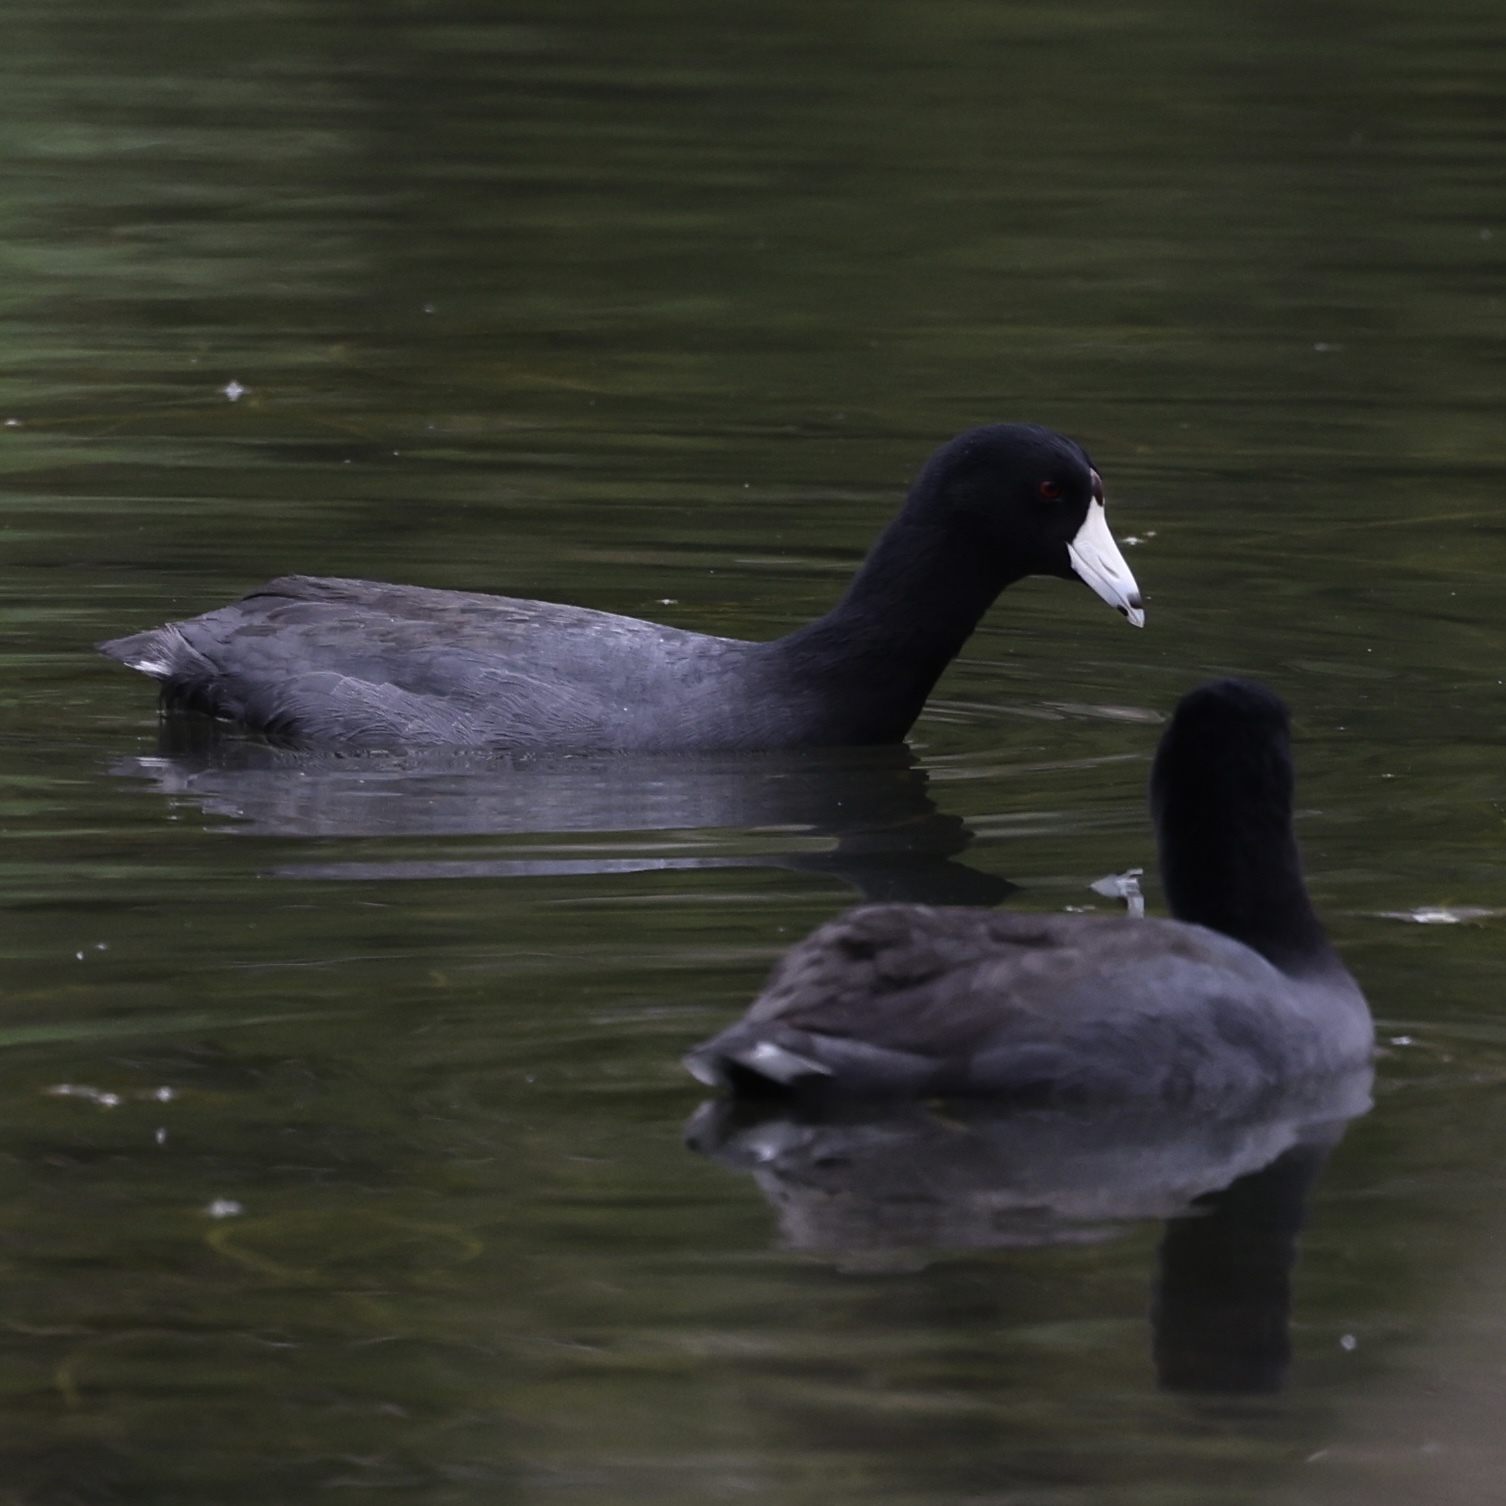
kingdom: Animalia
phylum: Chordata
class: Aves
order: Gruiformes
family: Rallidae
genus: Fulica
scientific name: Fulica americana
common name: American coot
